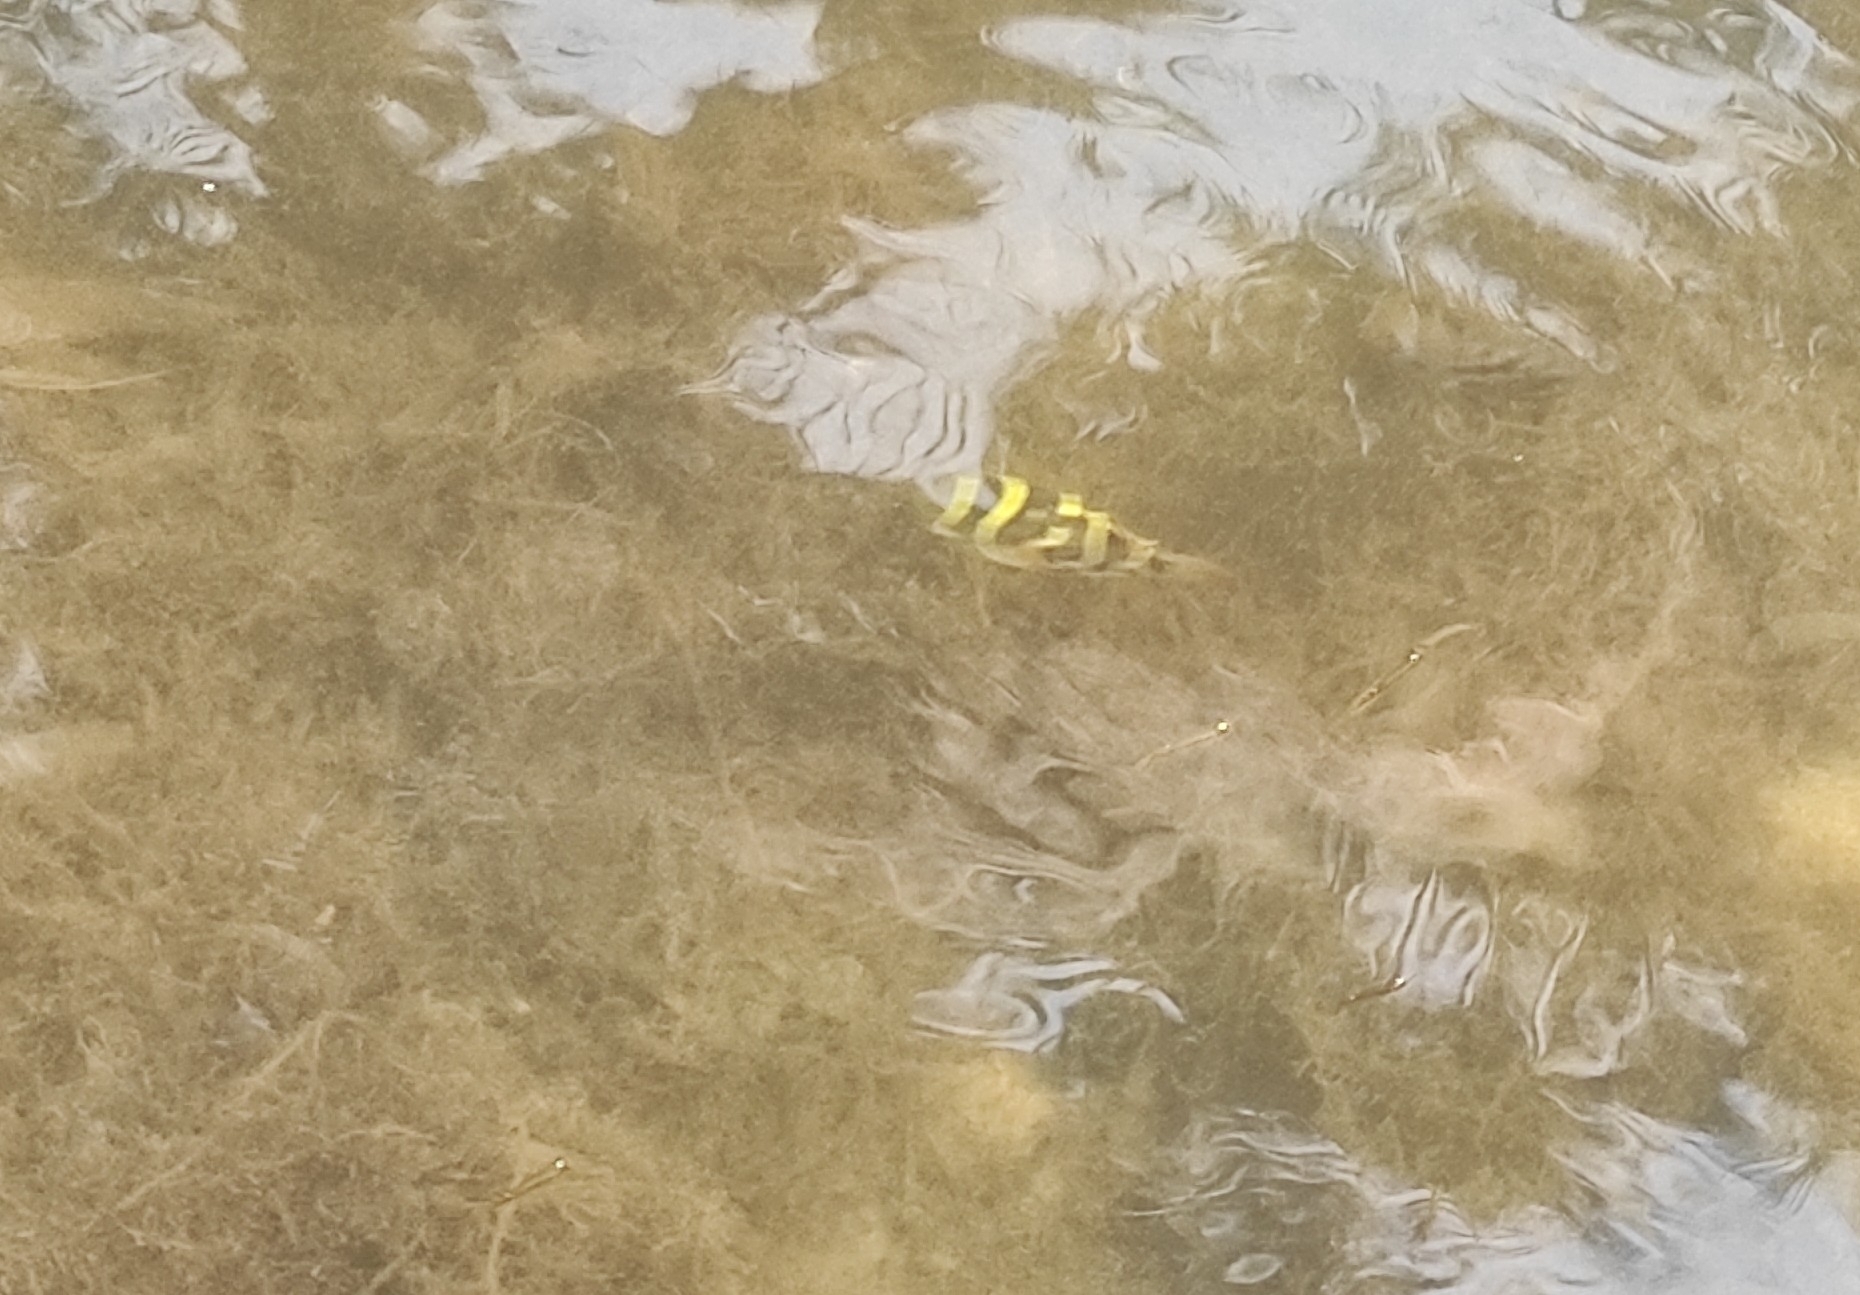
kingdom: Animalia
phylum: Chordata
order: Tetraodontiformes
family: Tetraodontidae
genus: Dichotomyctere
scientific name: Dichotomyctere ocellatus
